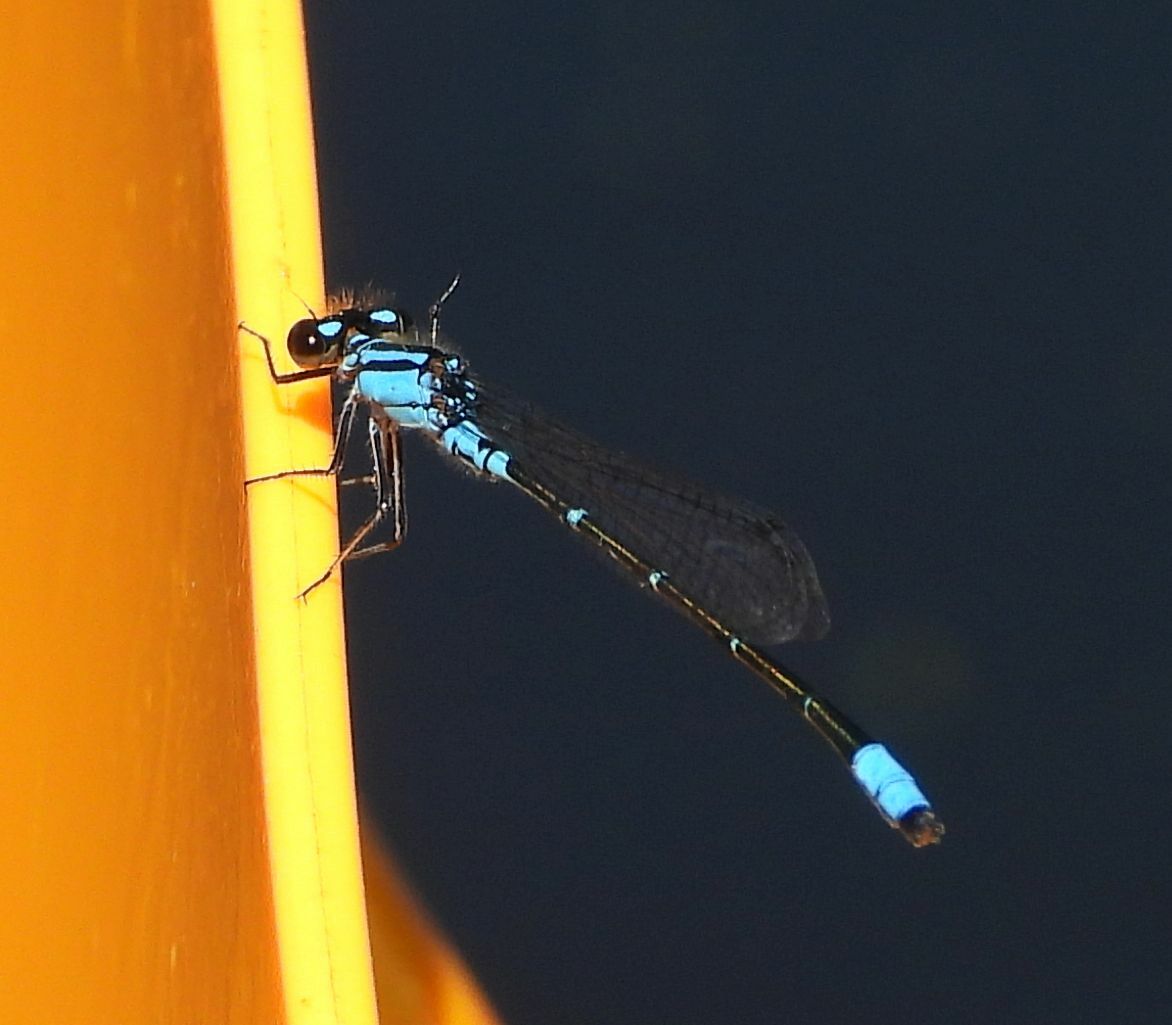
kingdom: Animalia
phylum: Arthropoda
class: Insecta
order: Odonata
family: Coenagrionidae
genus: Enallagma
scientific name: Enallagma geminatum
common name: Skimming bluet
